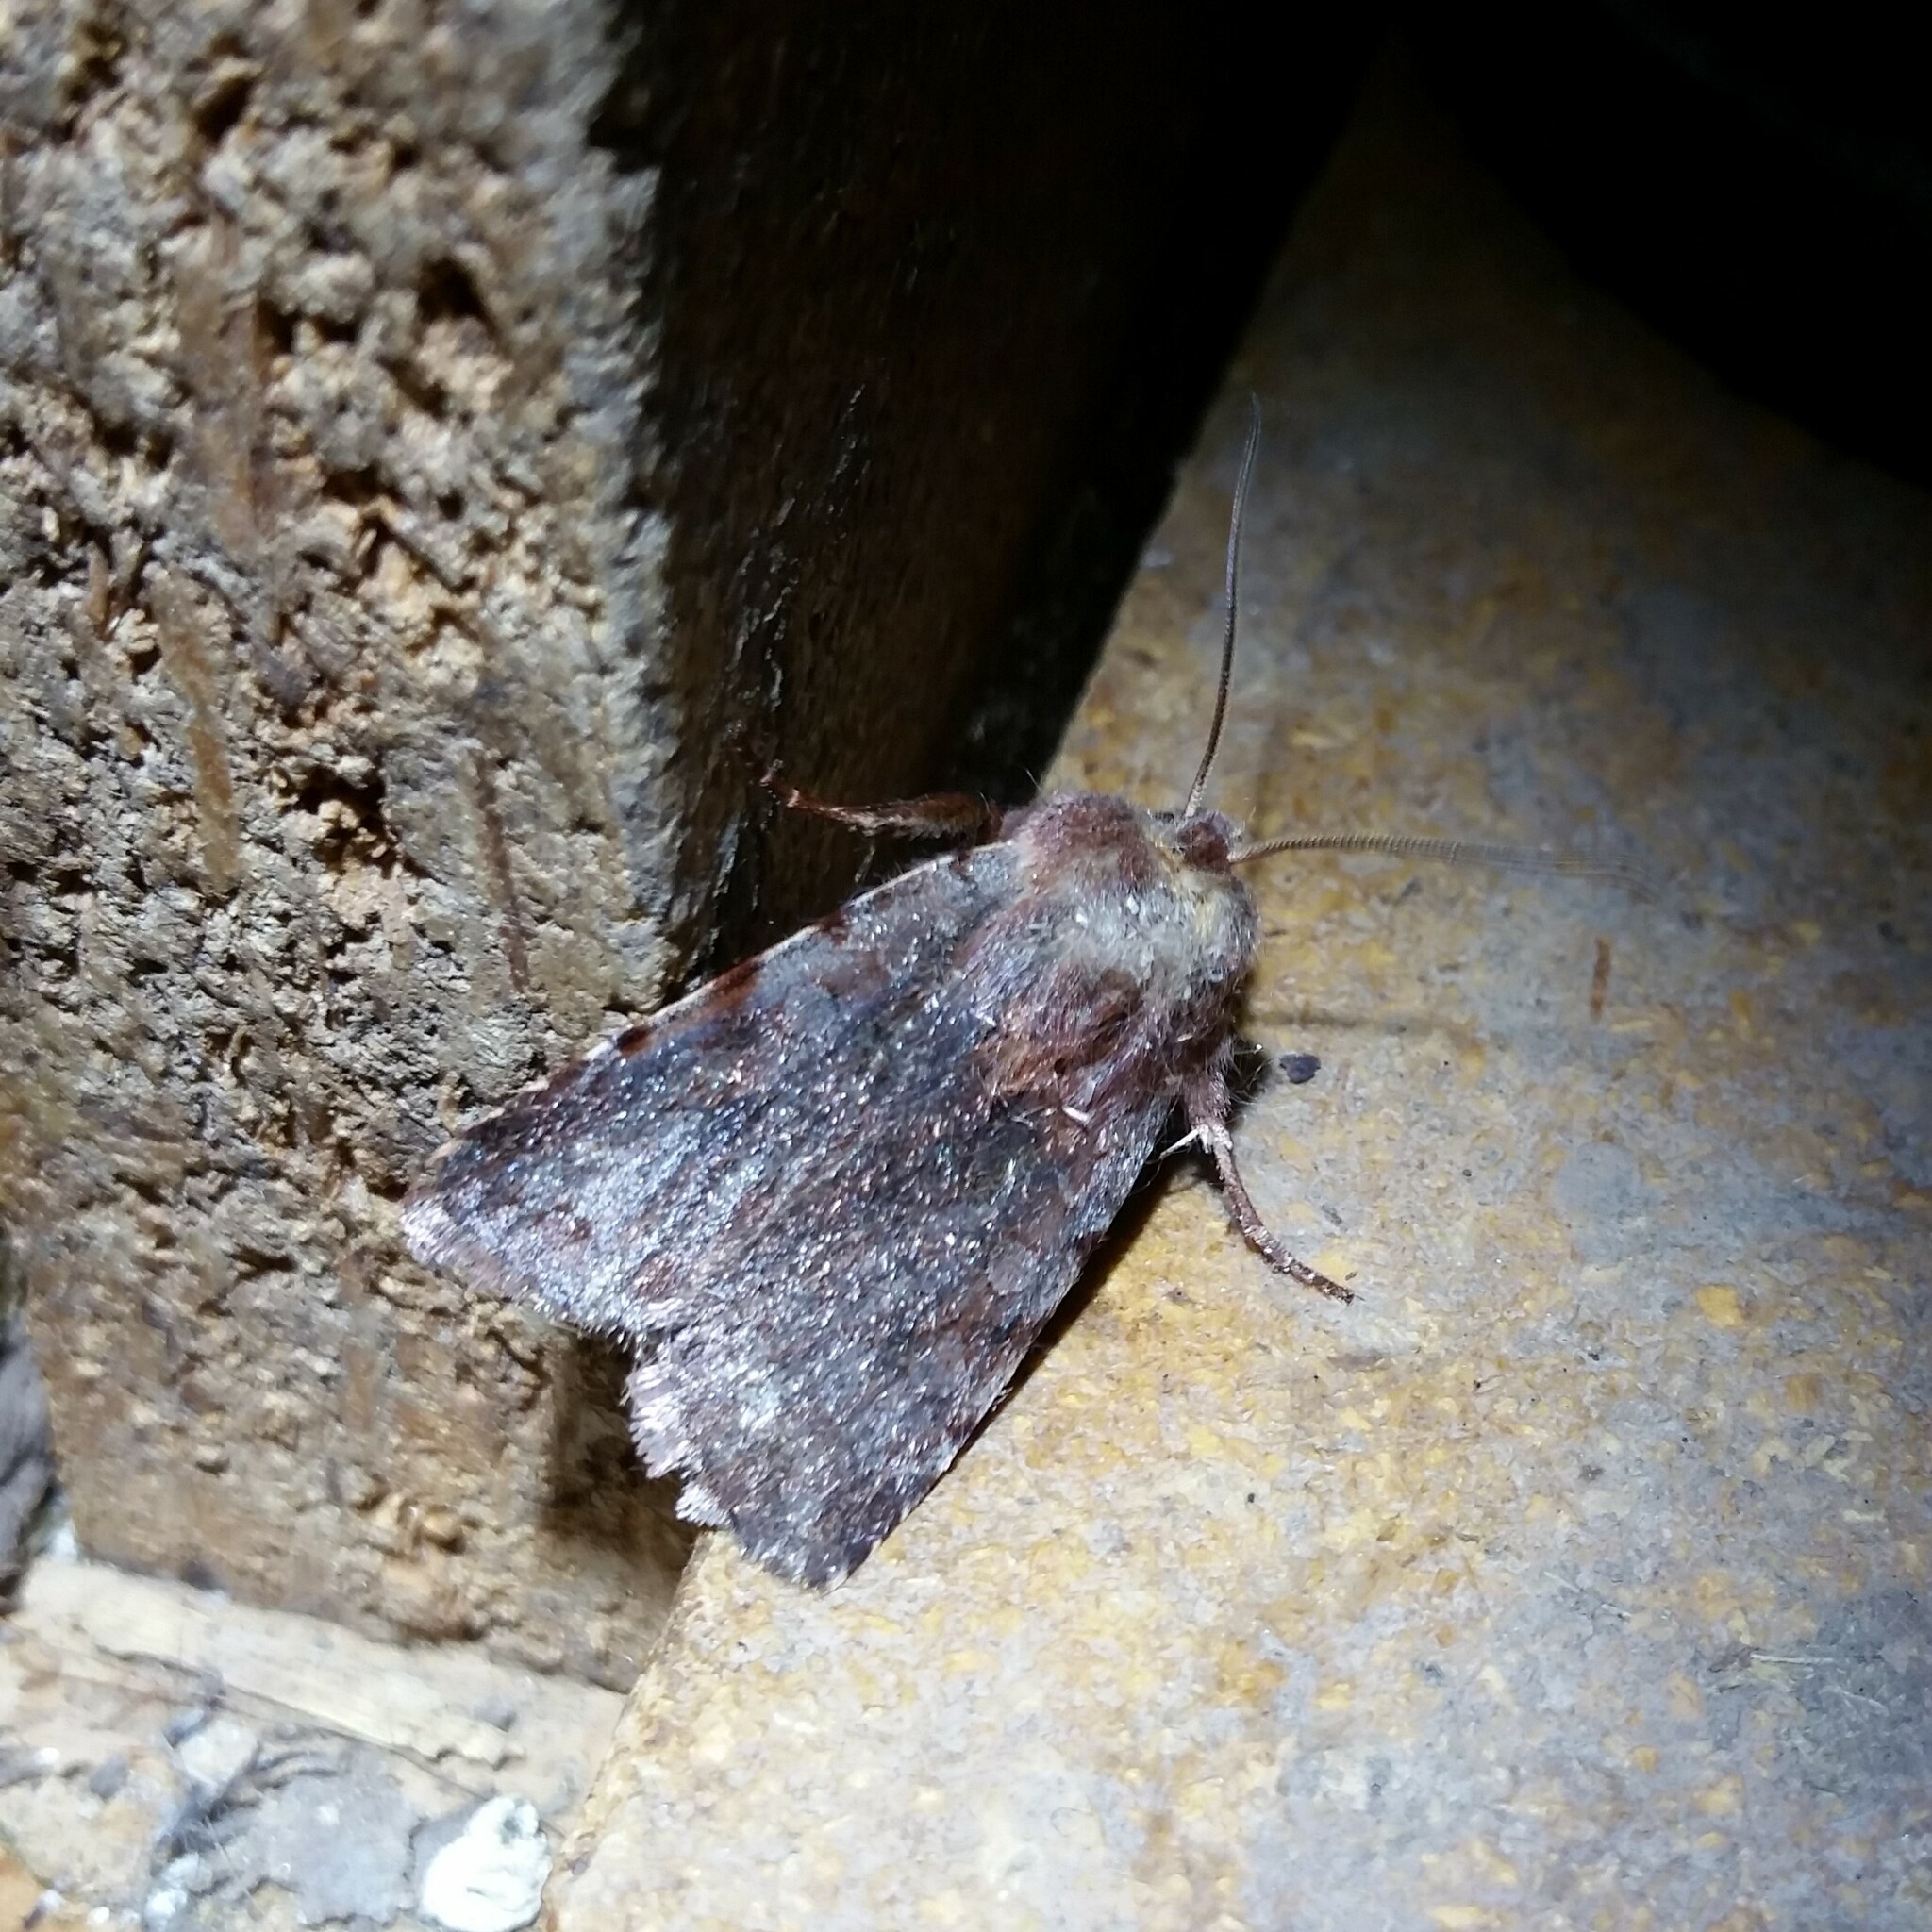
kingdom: Animalia
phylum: Arthropoda
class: Insecta
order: Lepidoptera
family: Noctuidae
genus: Cerastis
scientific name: Cerastis rubricosa
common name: Red chestnut
